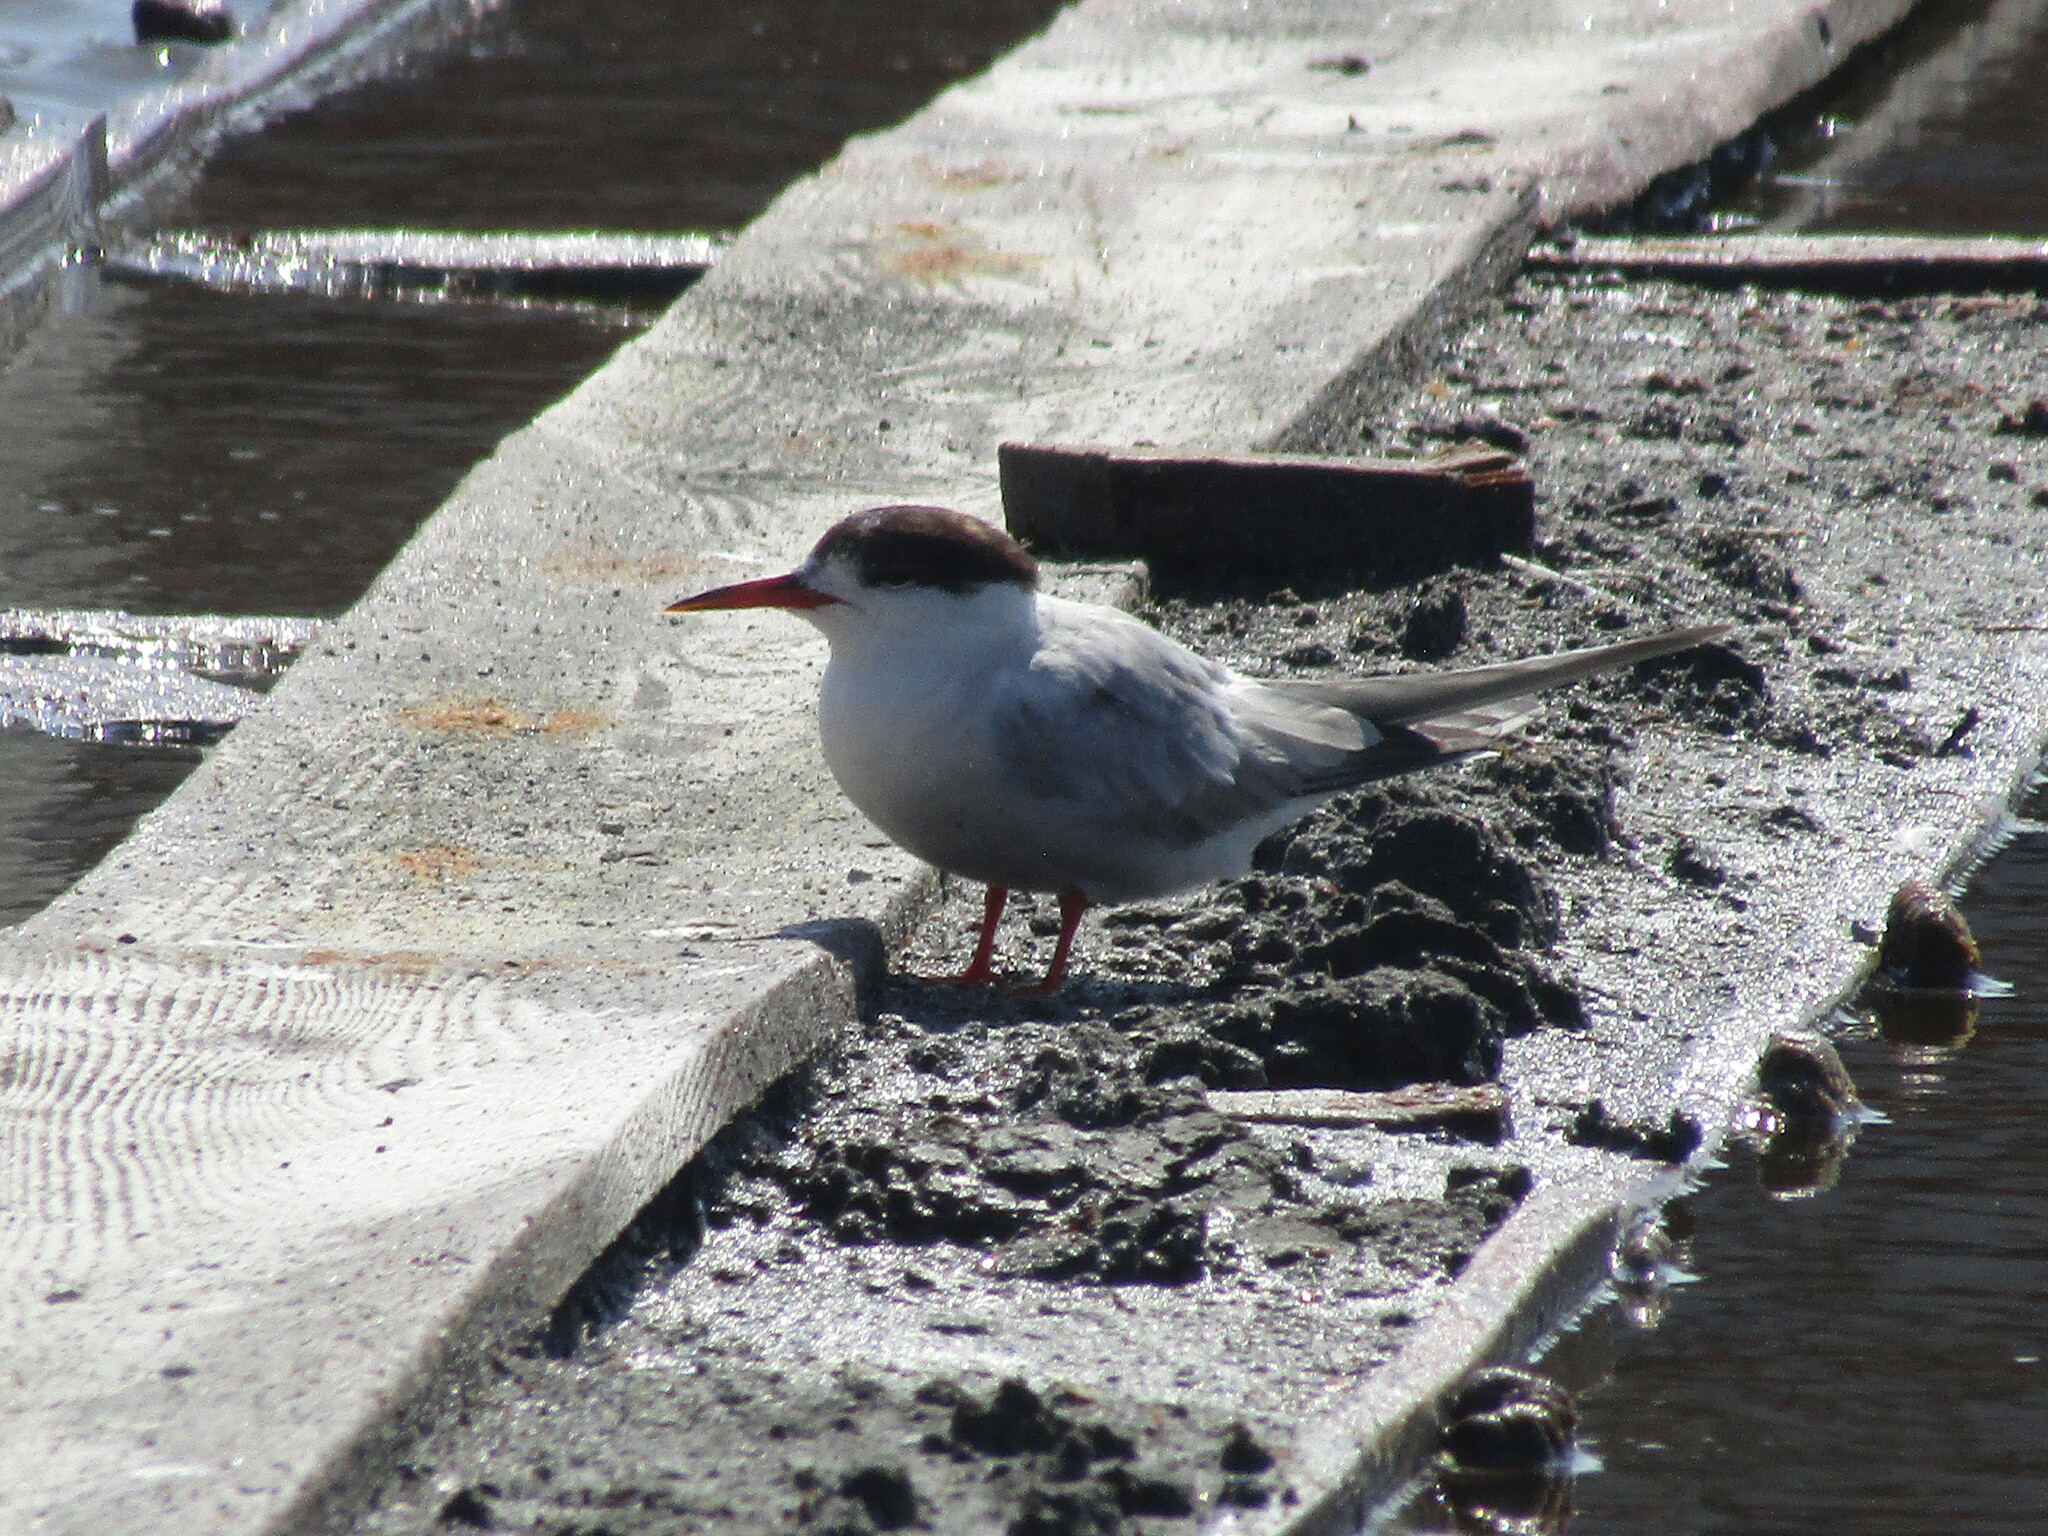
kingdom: Animalia
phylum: Chordata
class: Aves
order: Charadriiformes
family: Laridae
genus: Sterna
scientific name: Sterna hirundo
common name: Common tern
